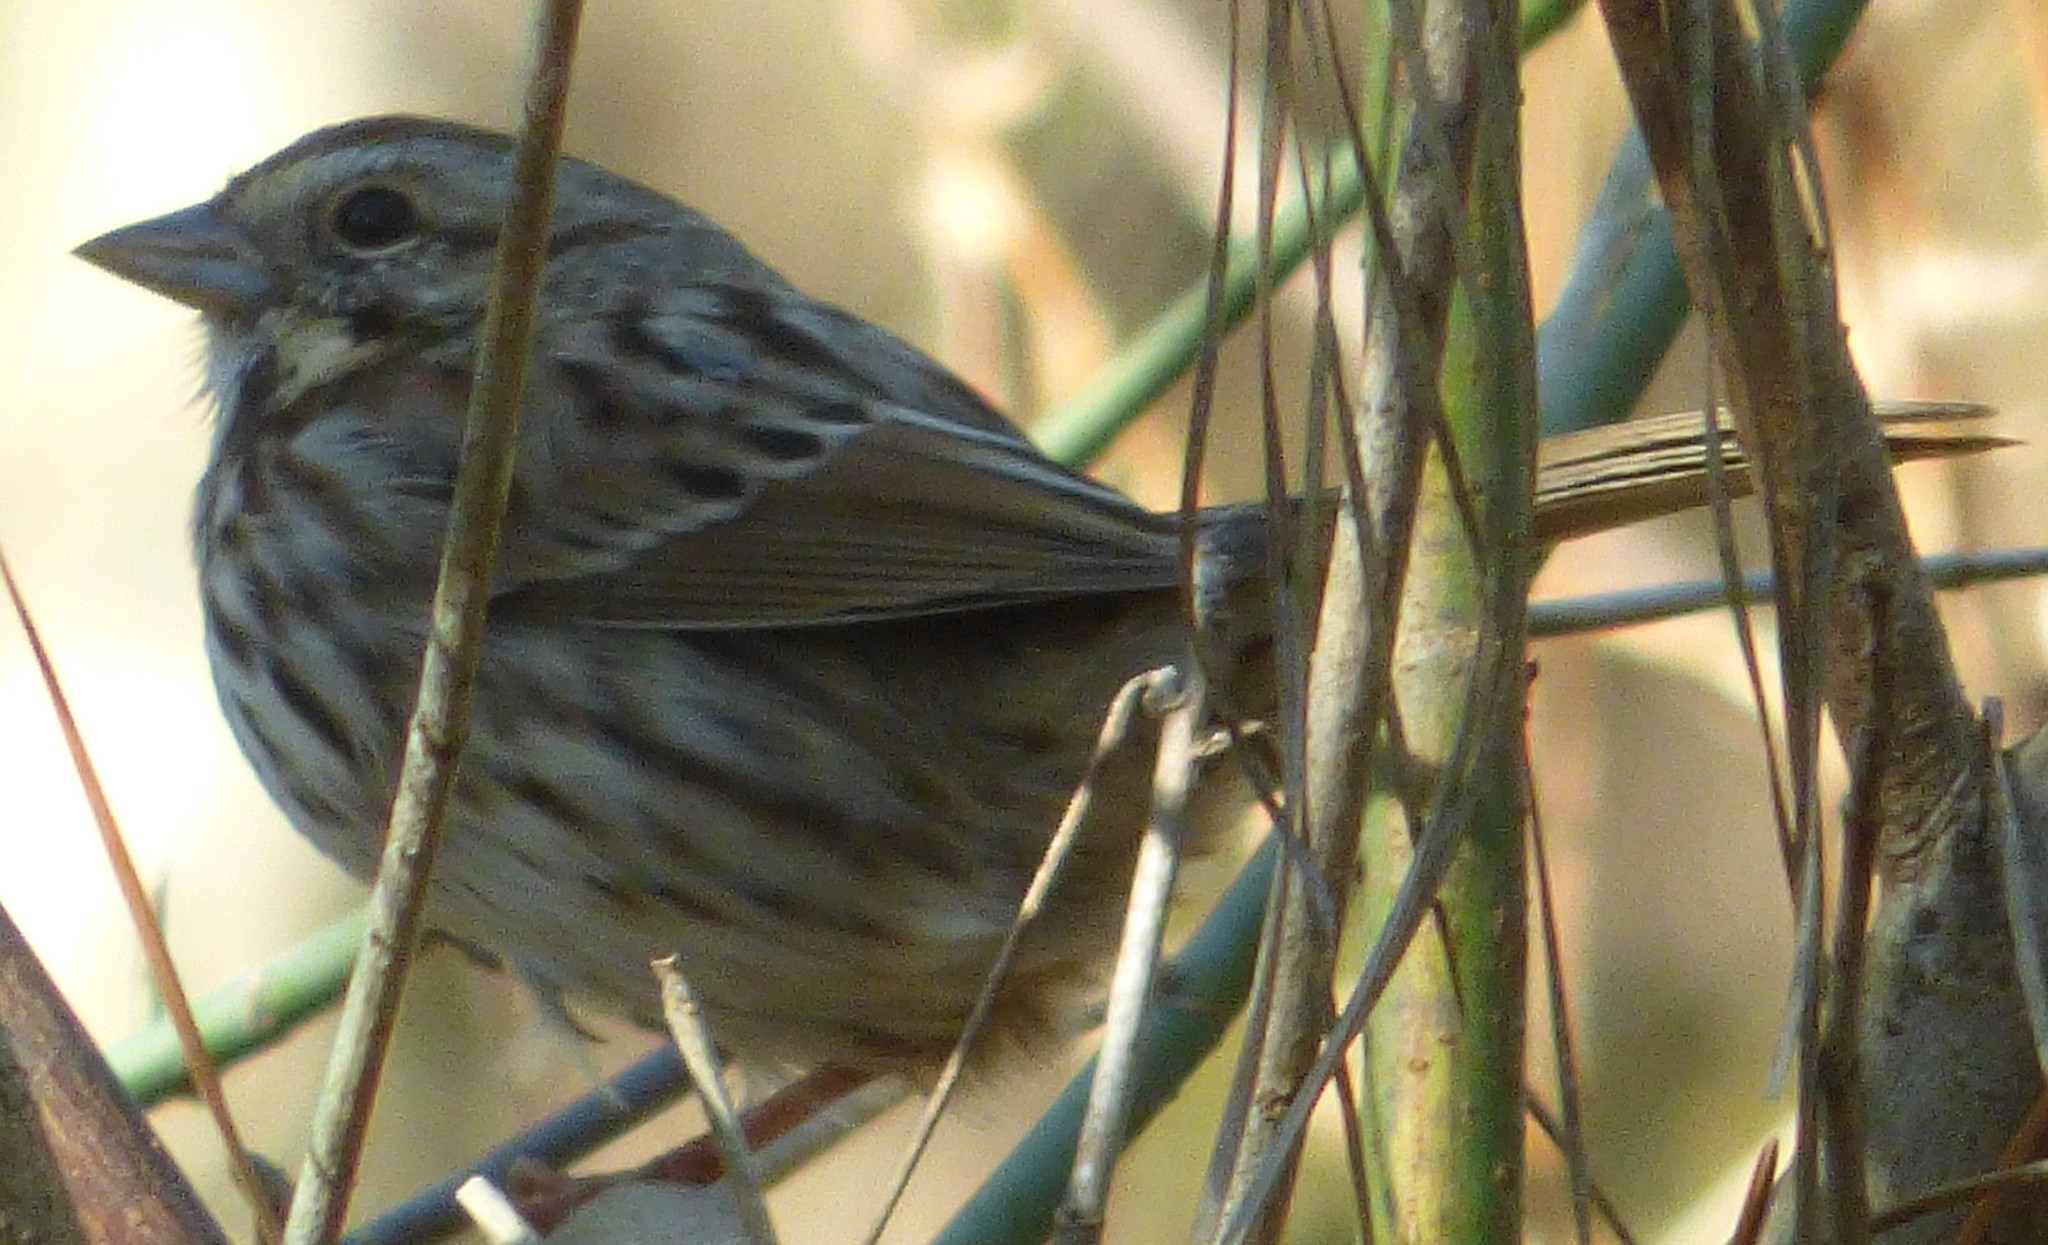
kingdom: Animalia
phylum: Chordata
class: Aves
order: Passeriformes
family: Passerellidae
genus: Melospiza
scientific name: Melospiza melodia
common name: Song sparrow
